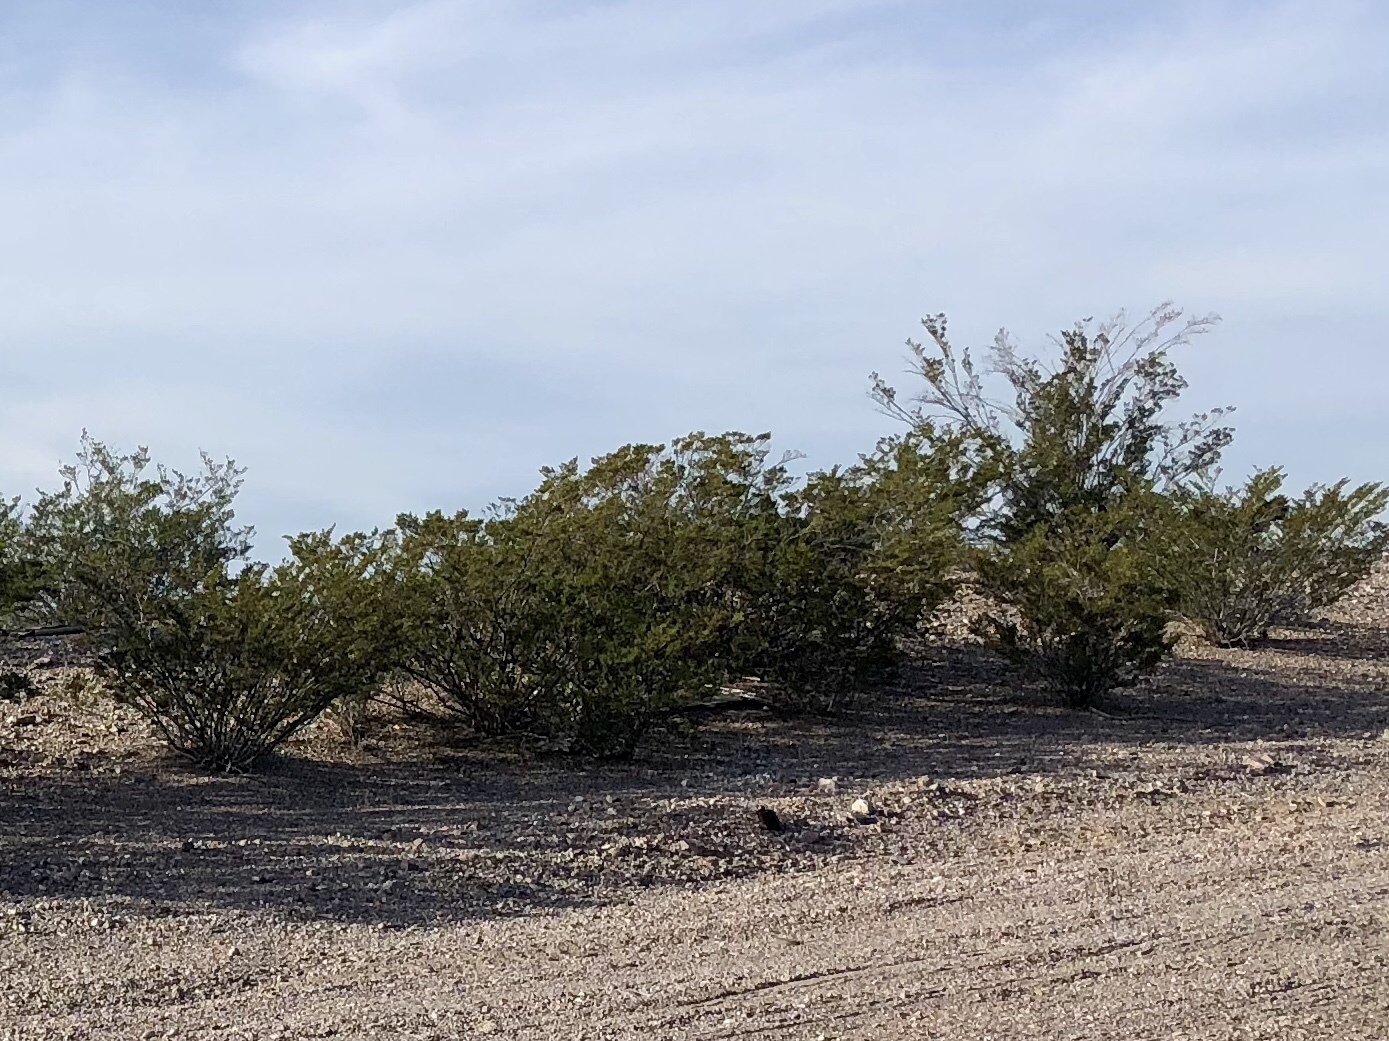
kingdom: Plantae
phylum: Tracheophyta
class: Magnoliopsida
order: Zygophyllales
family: Zygophyllaceae
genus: Larrea
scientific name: Larrea tridentata
